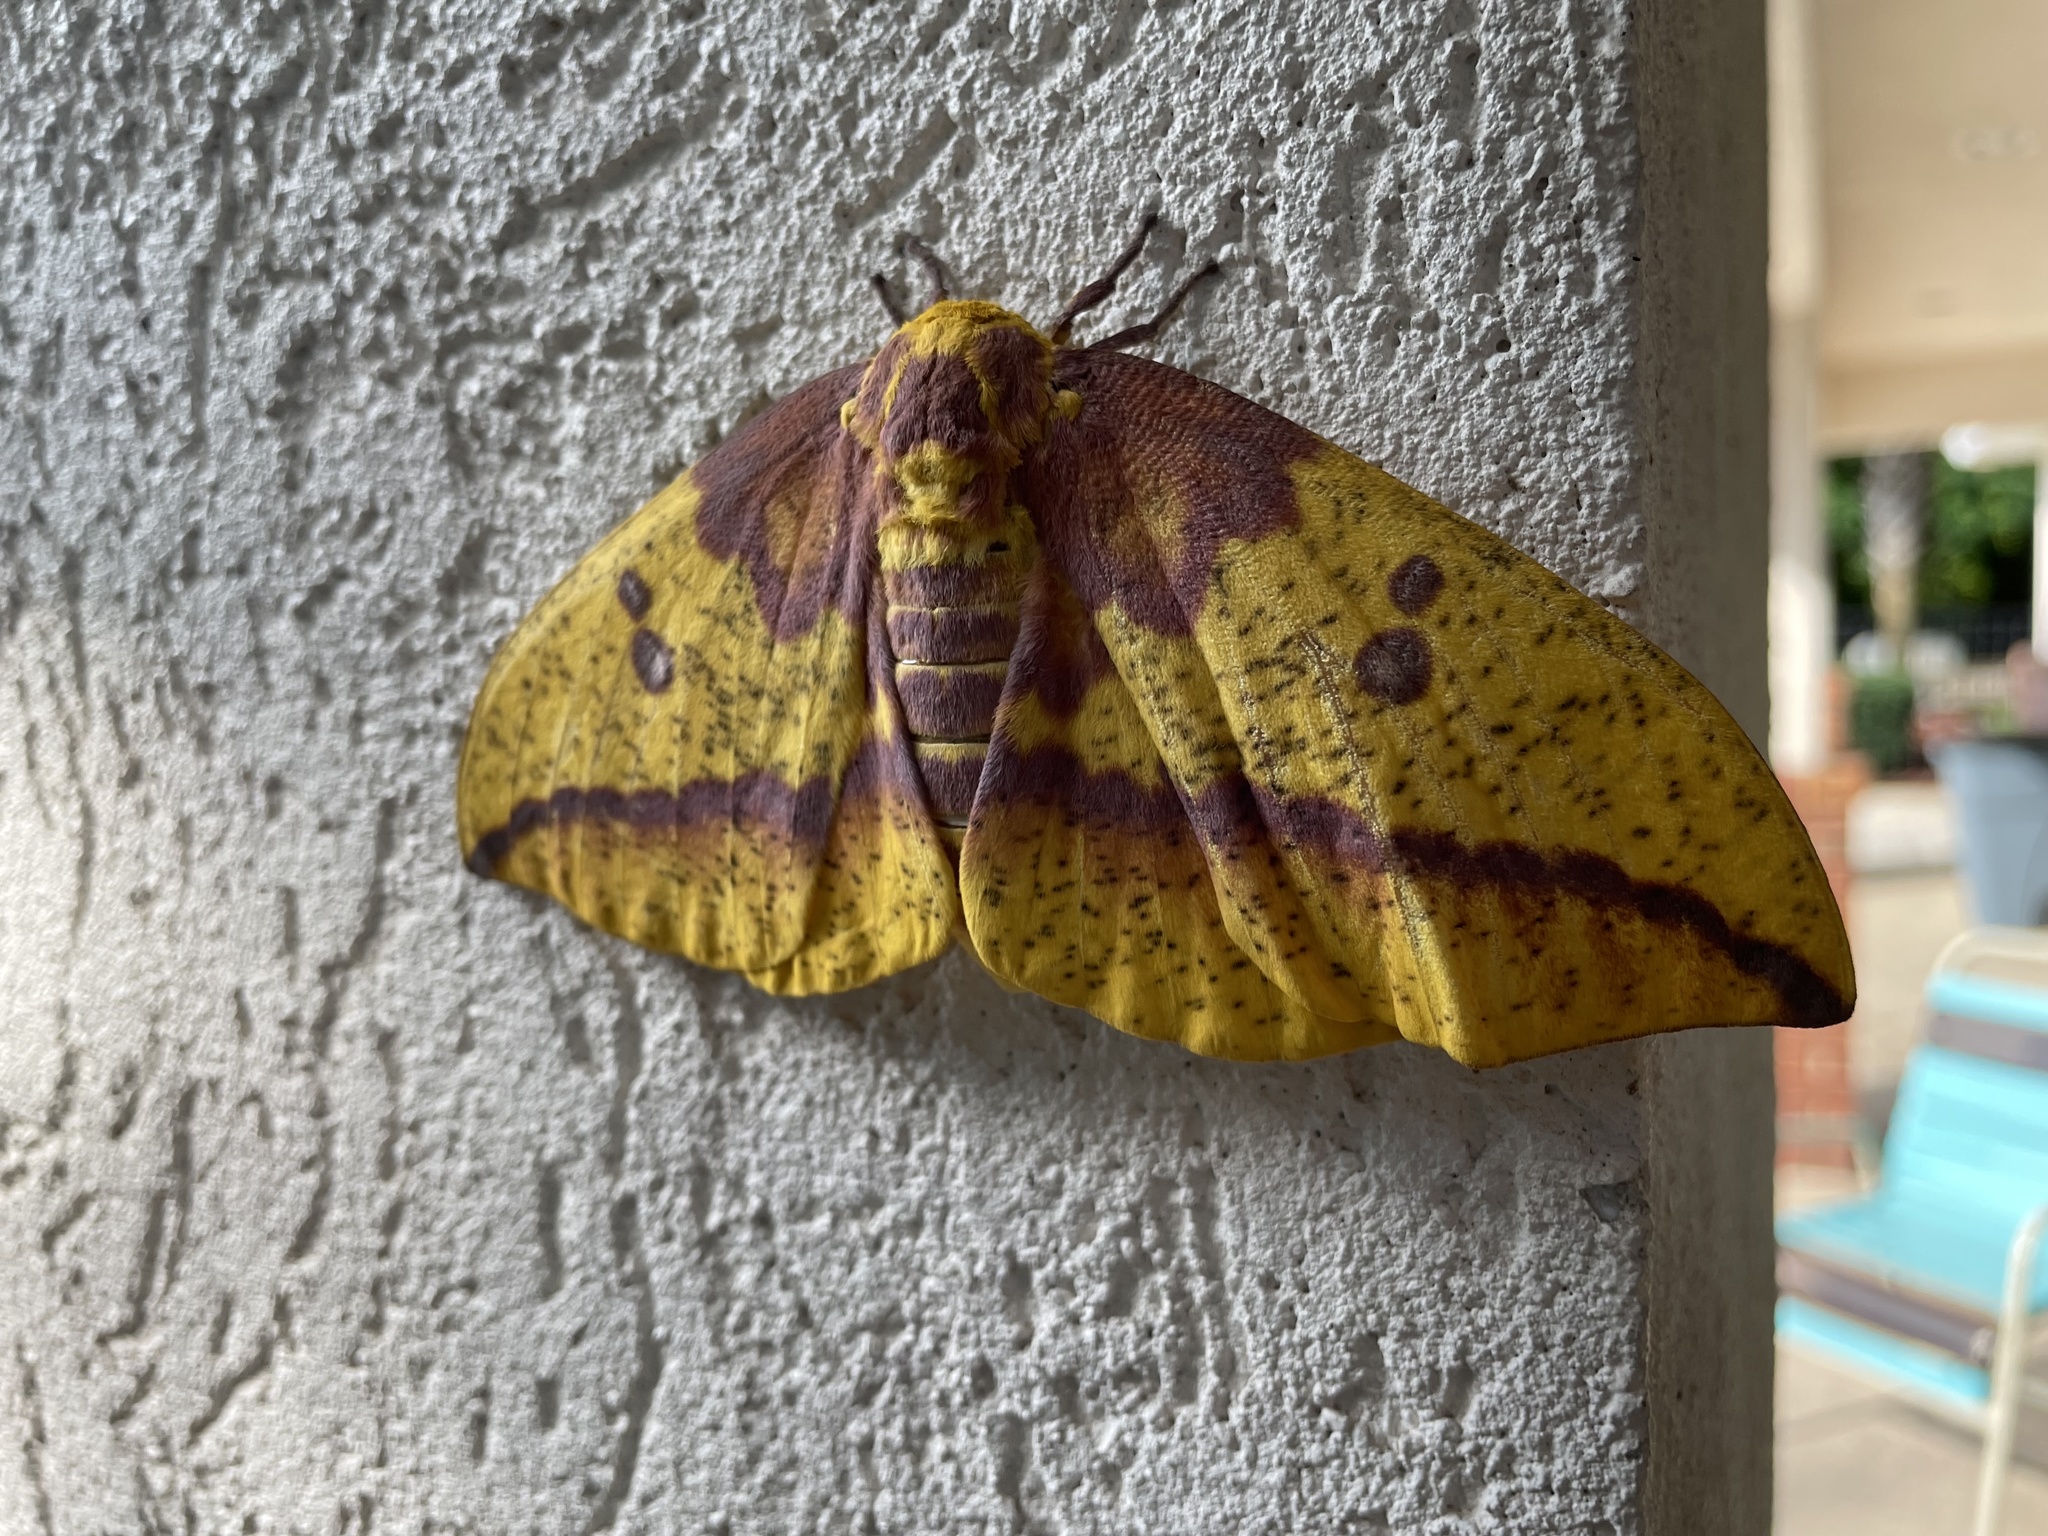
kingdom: Animalia
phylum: Arthropoda
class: Insecta
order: Lepidoptera
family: Saturniidae
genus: Eacles
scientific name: Eacles imperialis
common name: Imperial moth
